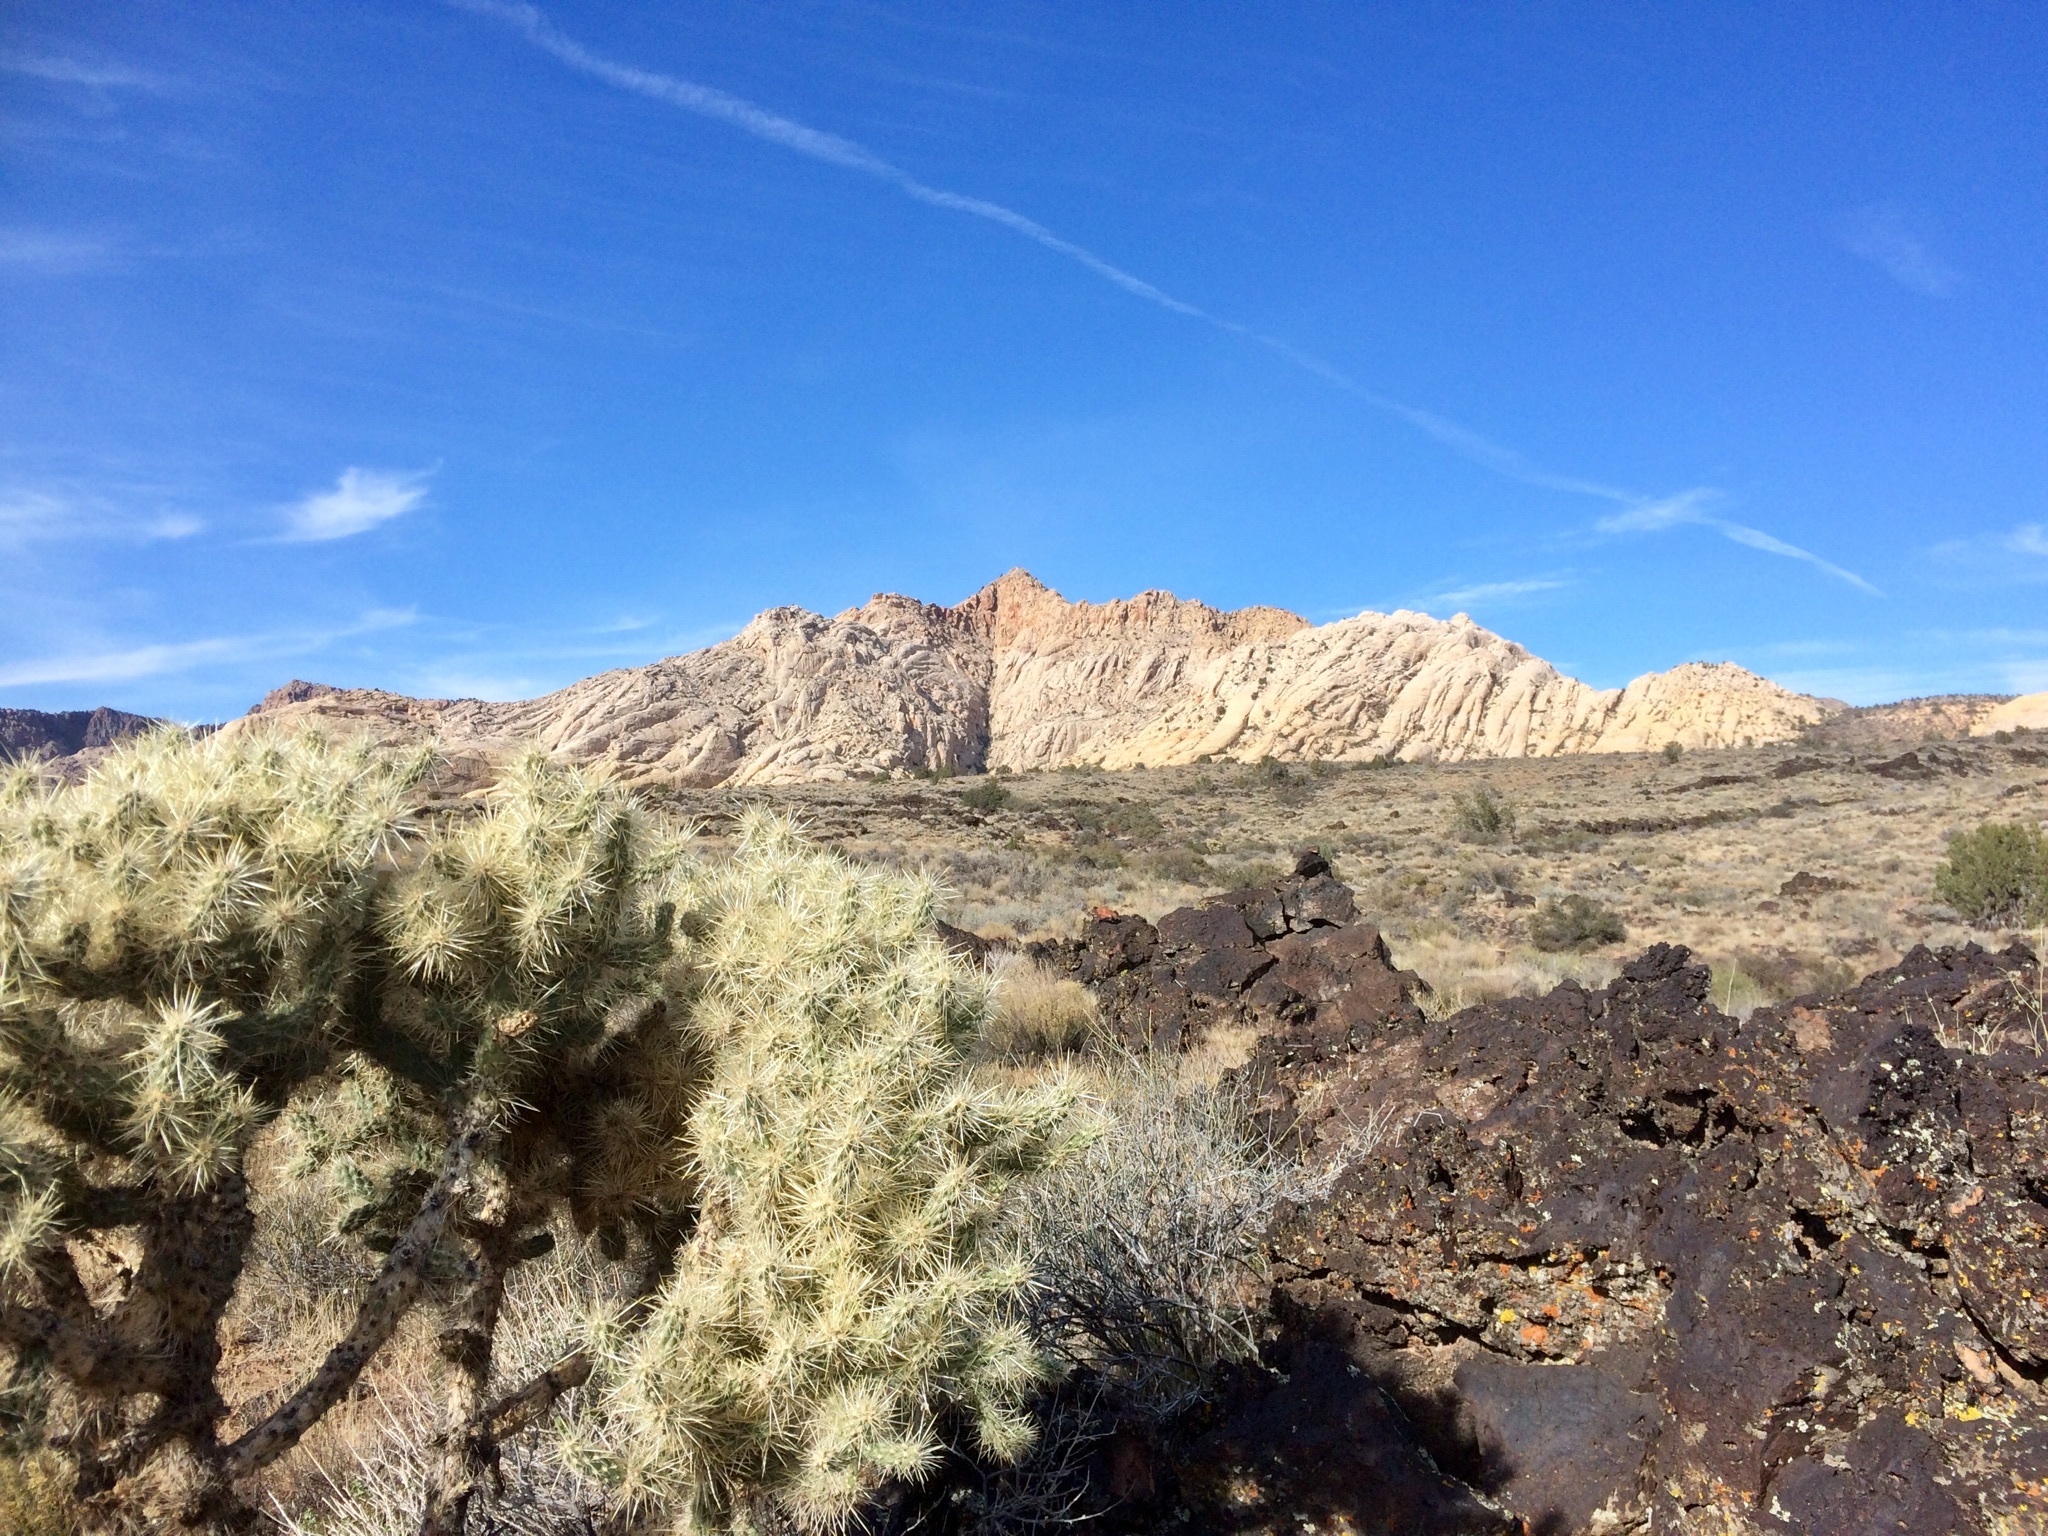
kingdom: Plantae
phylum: Tracheophyta
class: Magnoliopsida
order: Caryophyllales
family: Cactaceae
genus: Cylindropuntia
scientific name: Cylindropuntia echinocarpa
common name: Ground cholla
